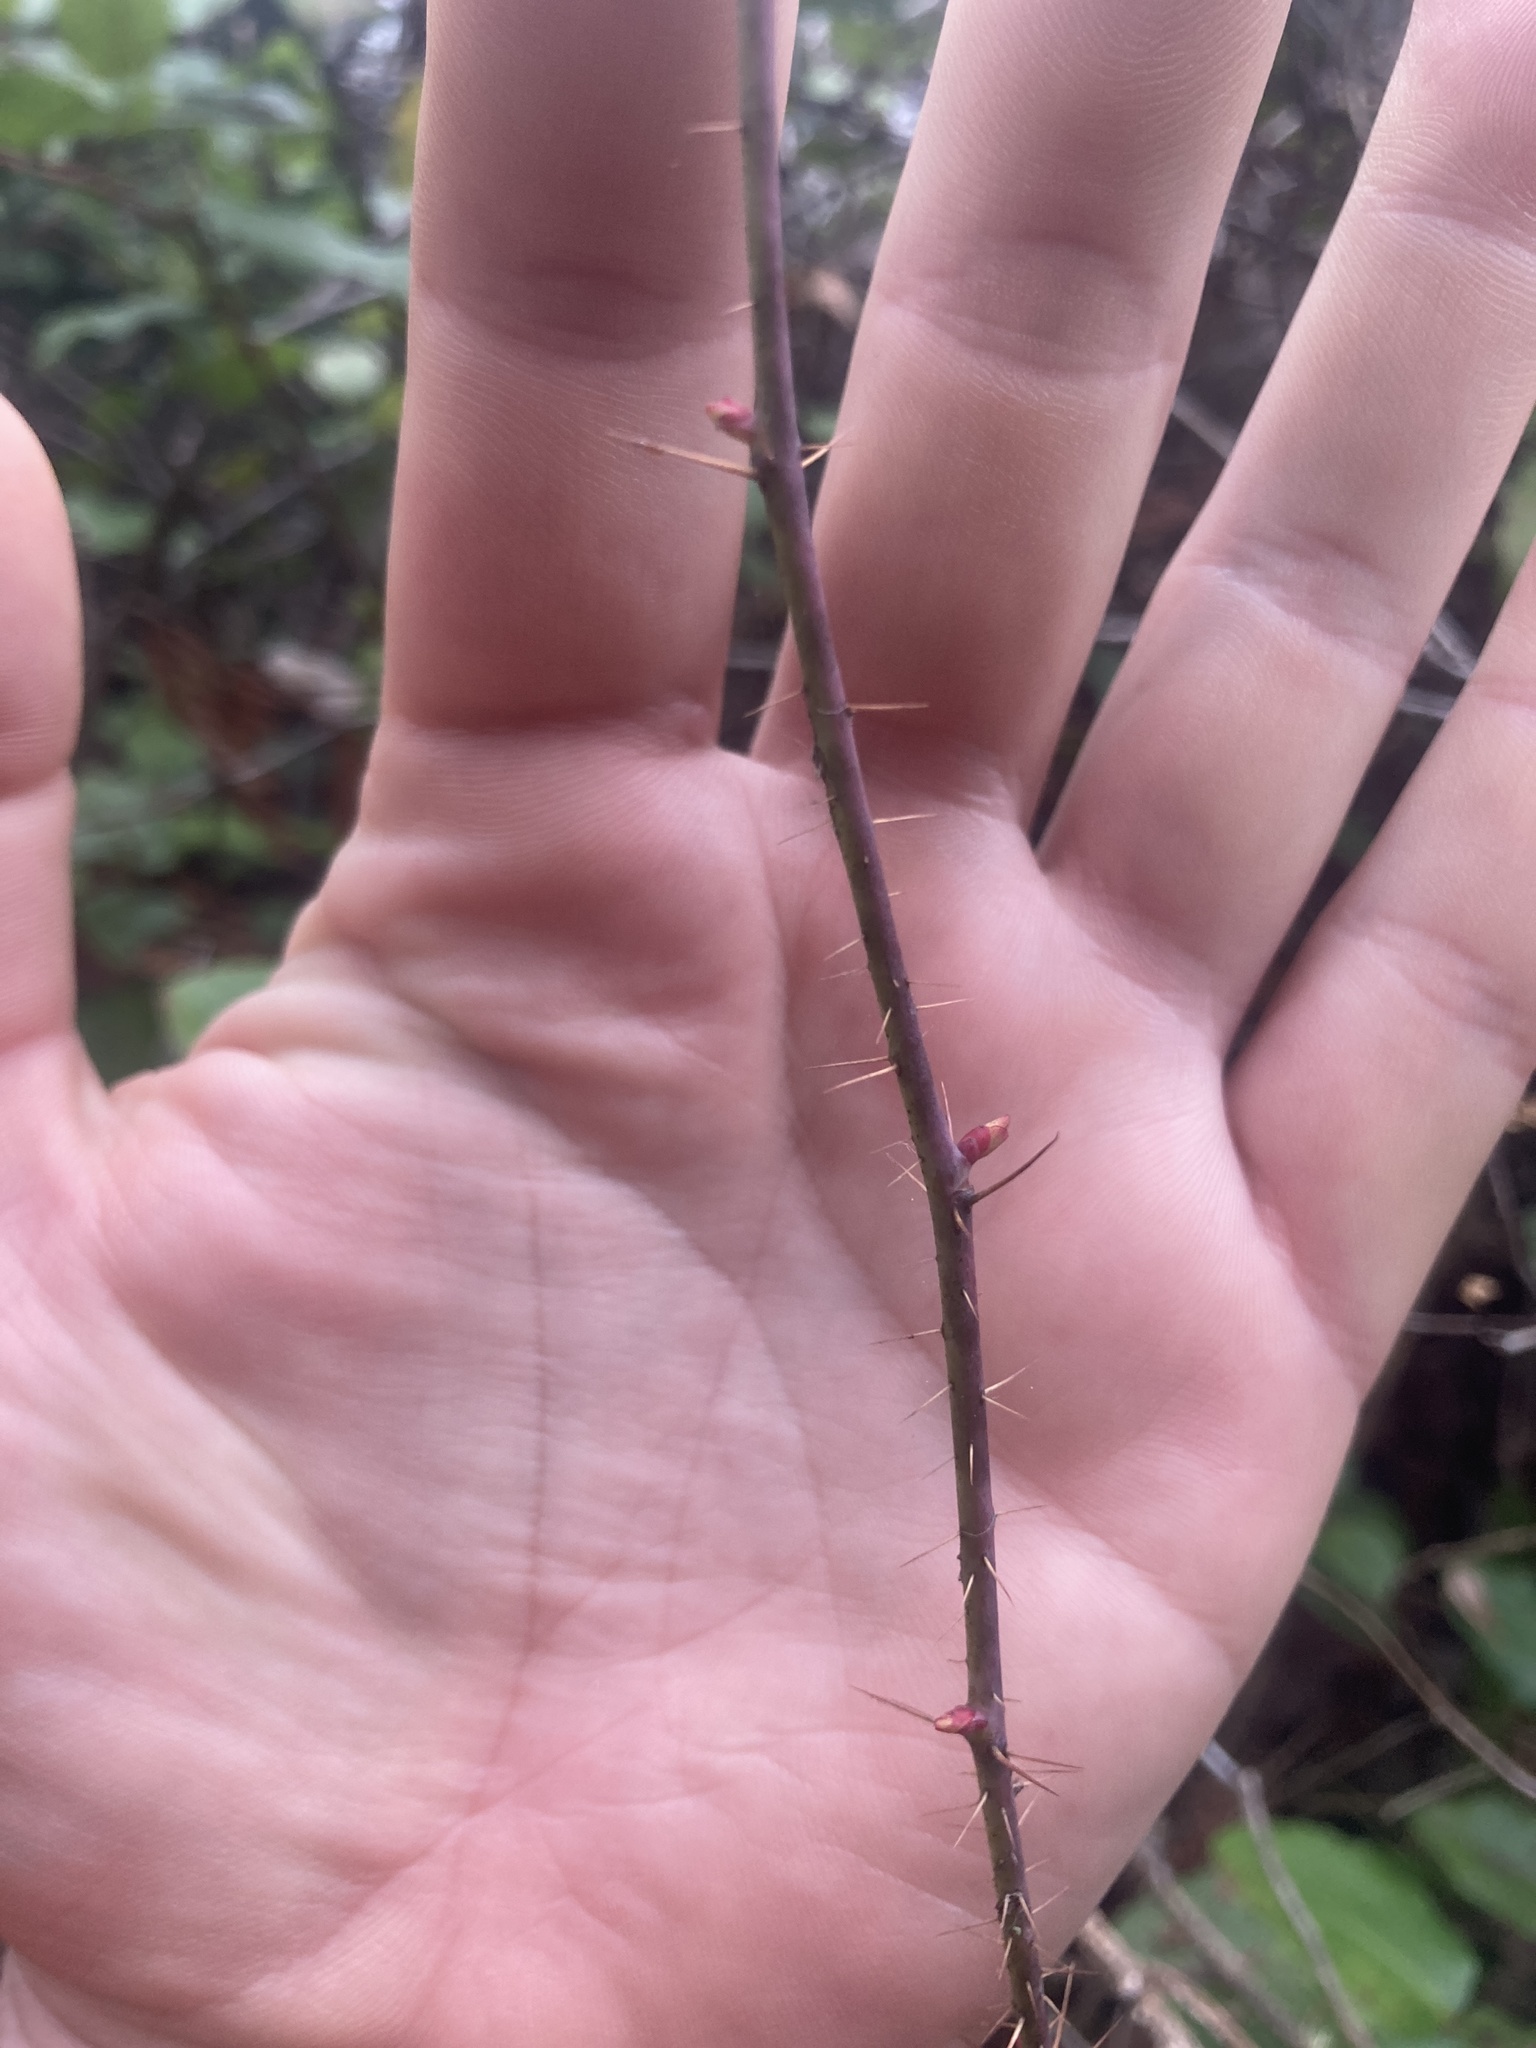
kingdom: Plantae
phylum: Tracheophyta
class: Magnoliopsida
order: Rosales
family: Rosaceae
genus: Rosa
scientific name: Rosa gymnocarpa
